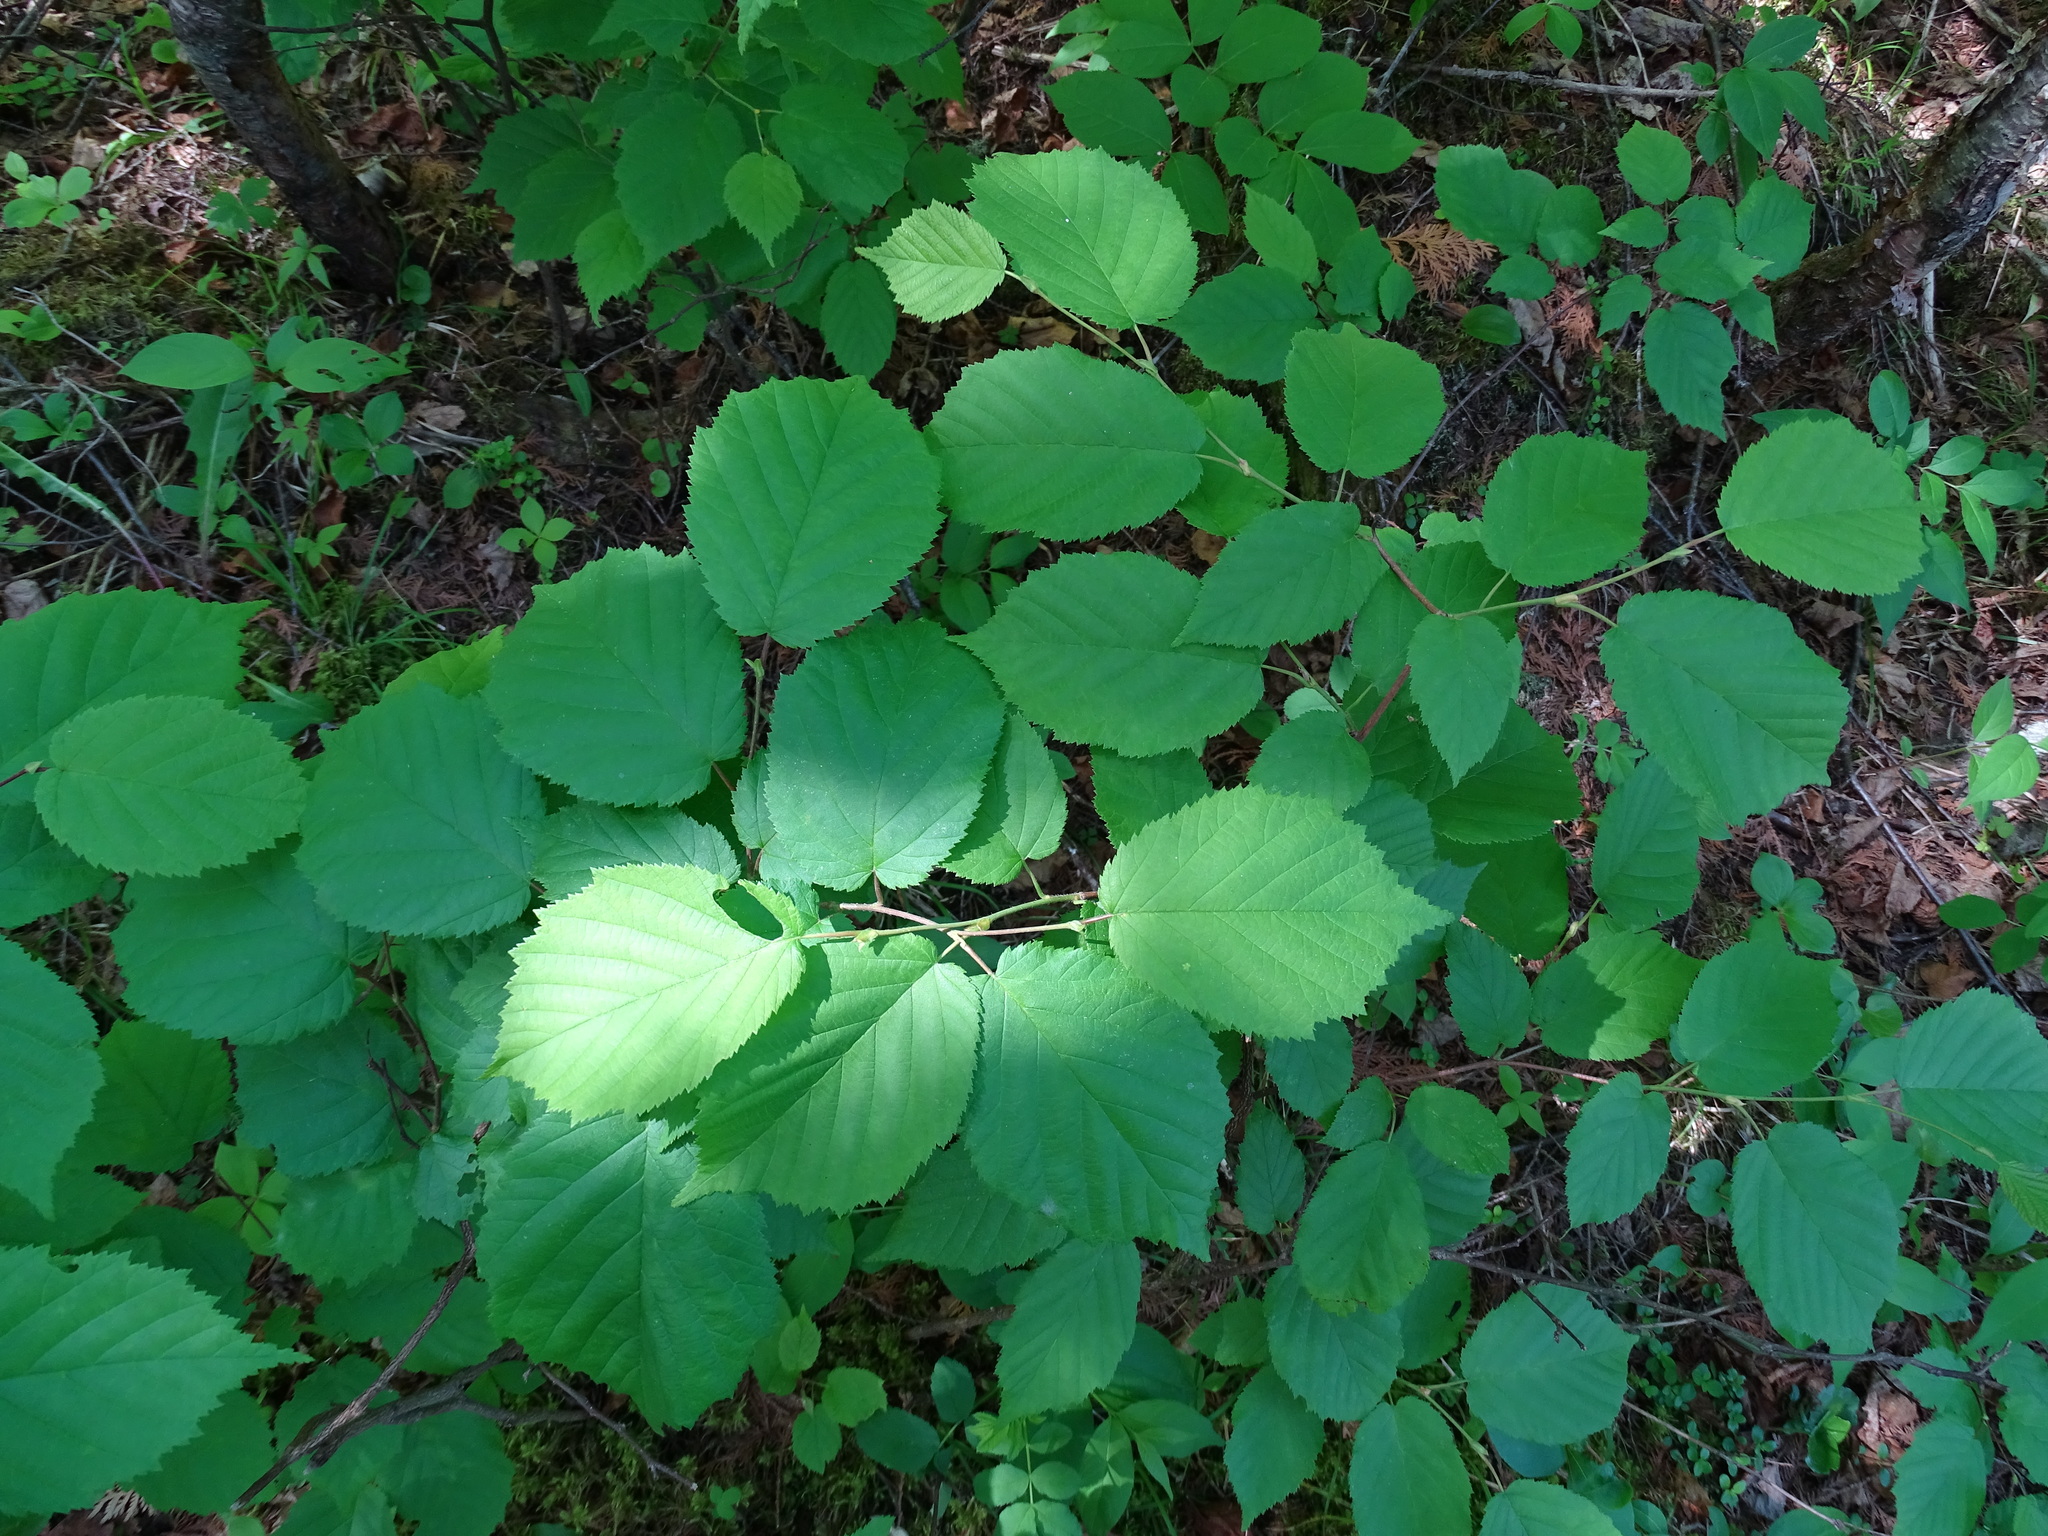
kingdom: Plantae
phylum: Tracheophyta
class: Magnoliopsida
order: Fagales
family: Betulaceae
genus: Corylus
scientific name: Corylus cornuta
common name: Beaked hazel
